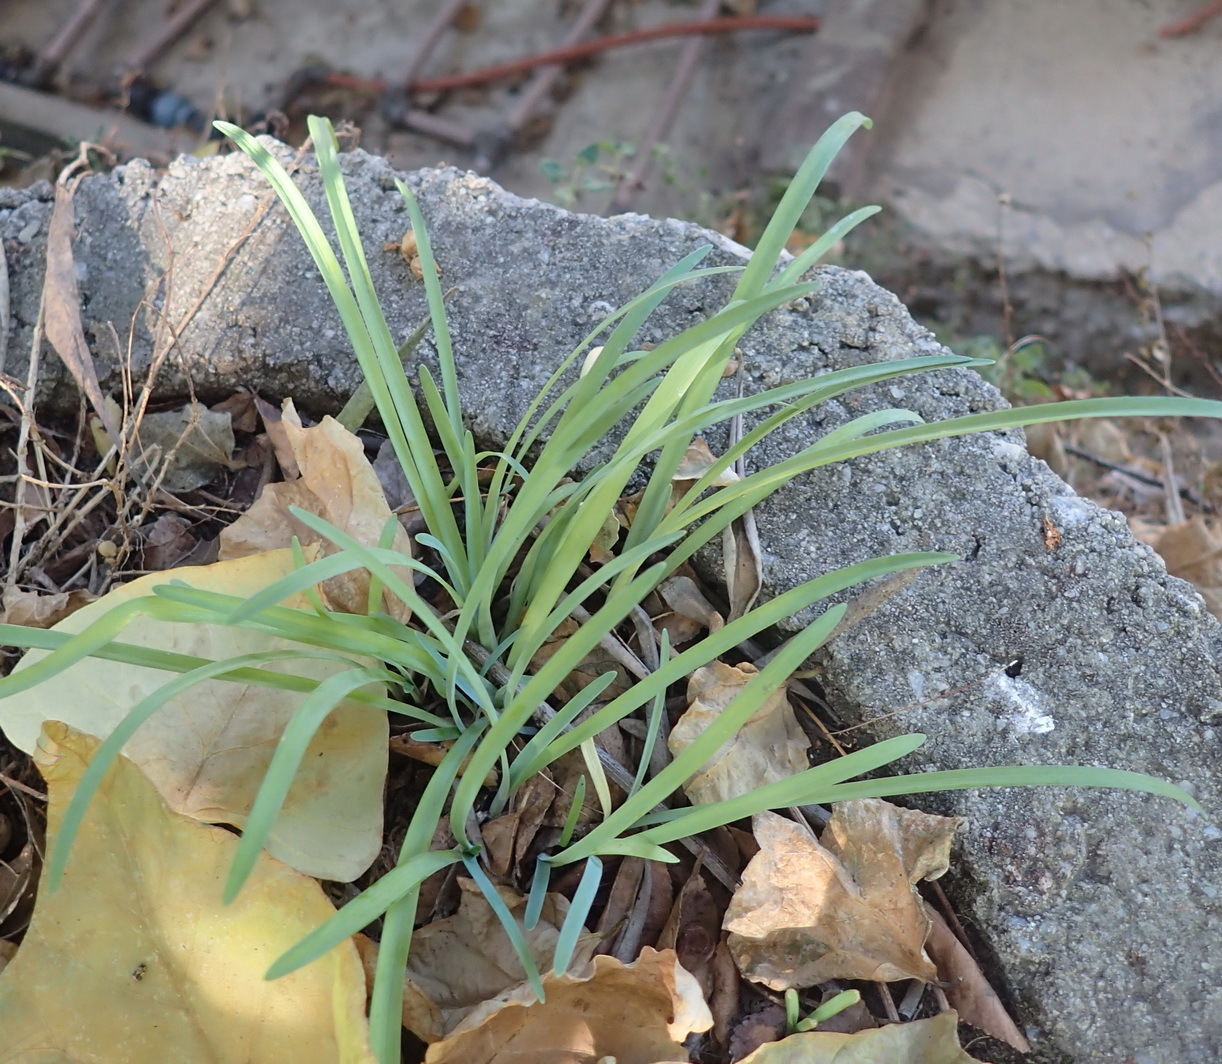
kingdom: Plantae
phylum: Tracheophyta
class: Liliopsida
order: Asparagales
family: Amaryllidaceae
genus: Ipheion
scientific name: Ipheion uniflorum
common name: Spring starflower
